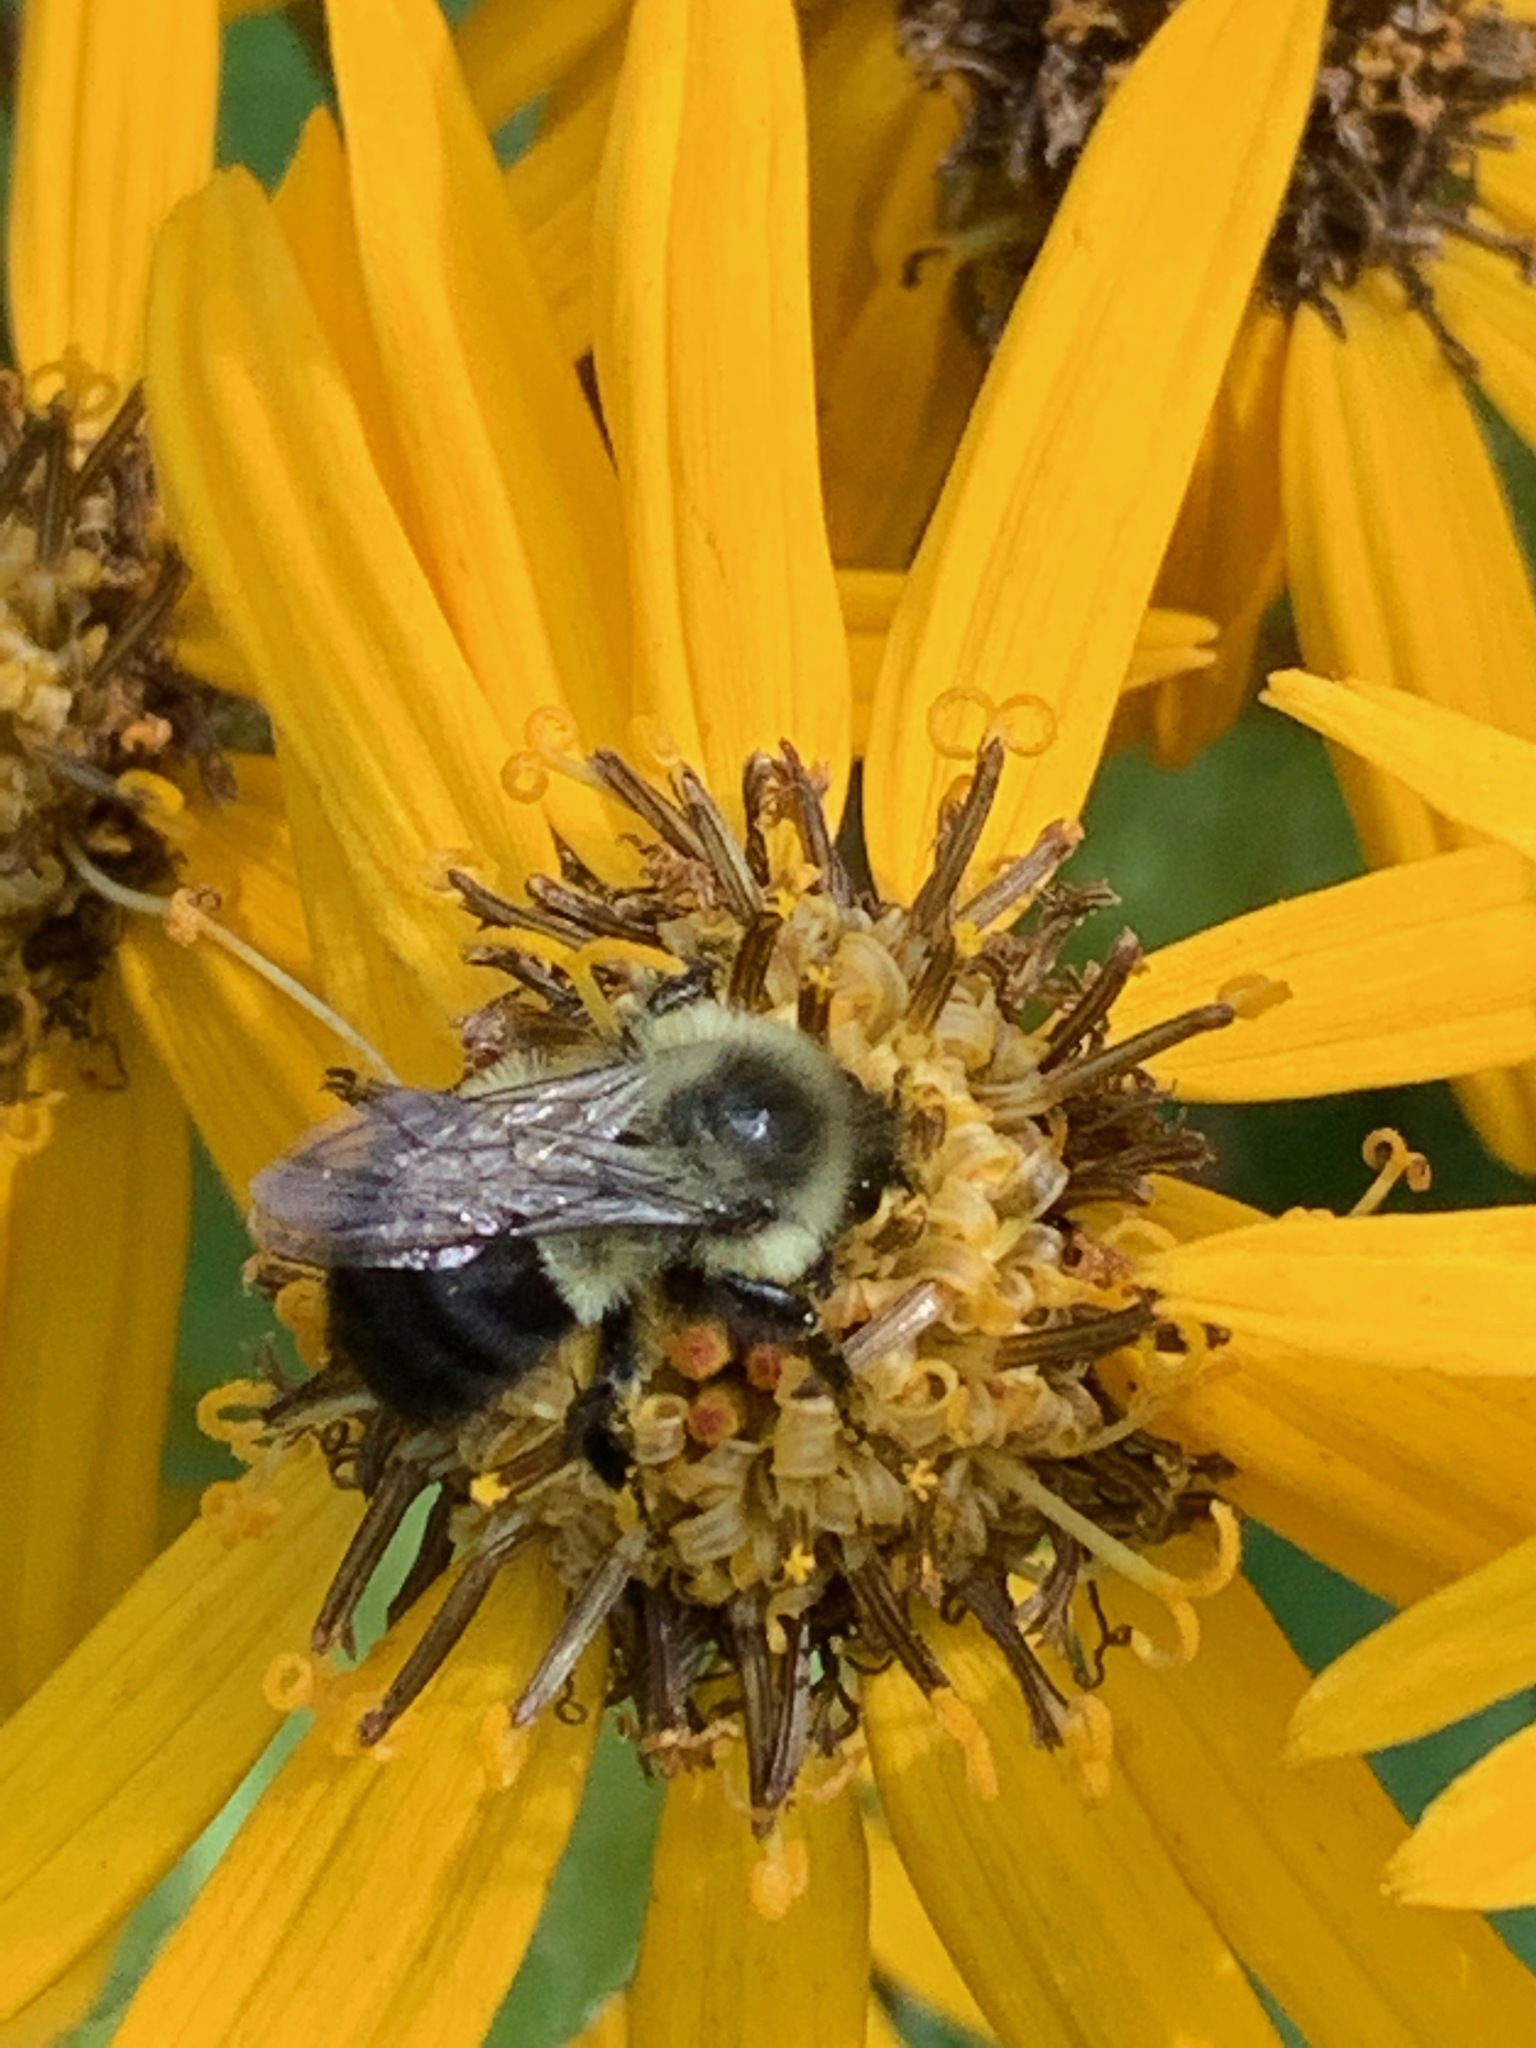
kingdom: Animalia
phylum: Arthropoda
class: Insecta
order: Hymenoptera
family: Apidae
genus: Bombus
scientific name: Bombus impatiens
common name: Common eastern bumble bee
